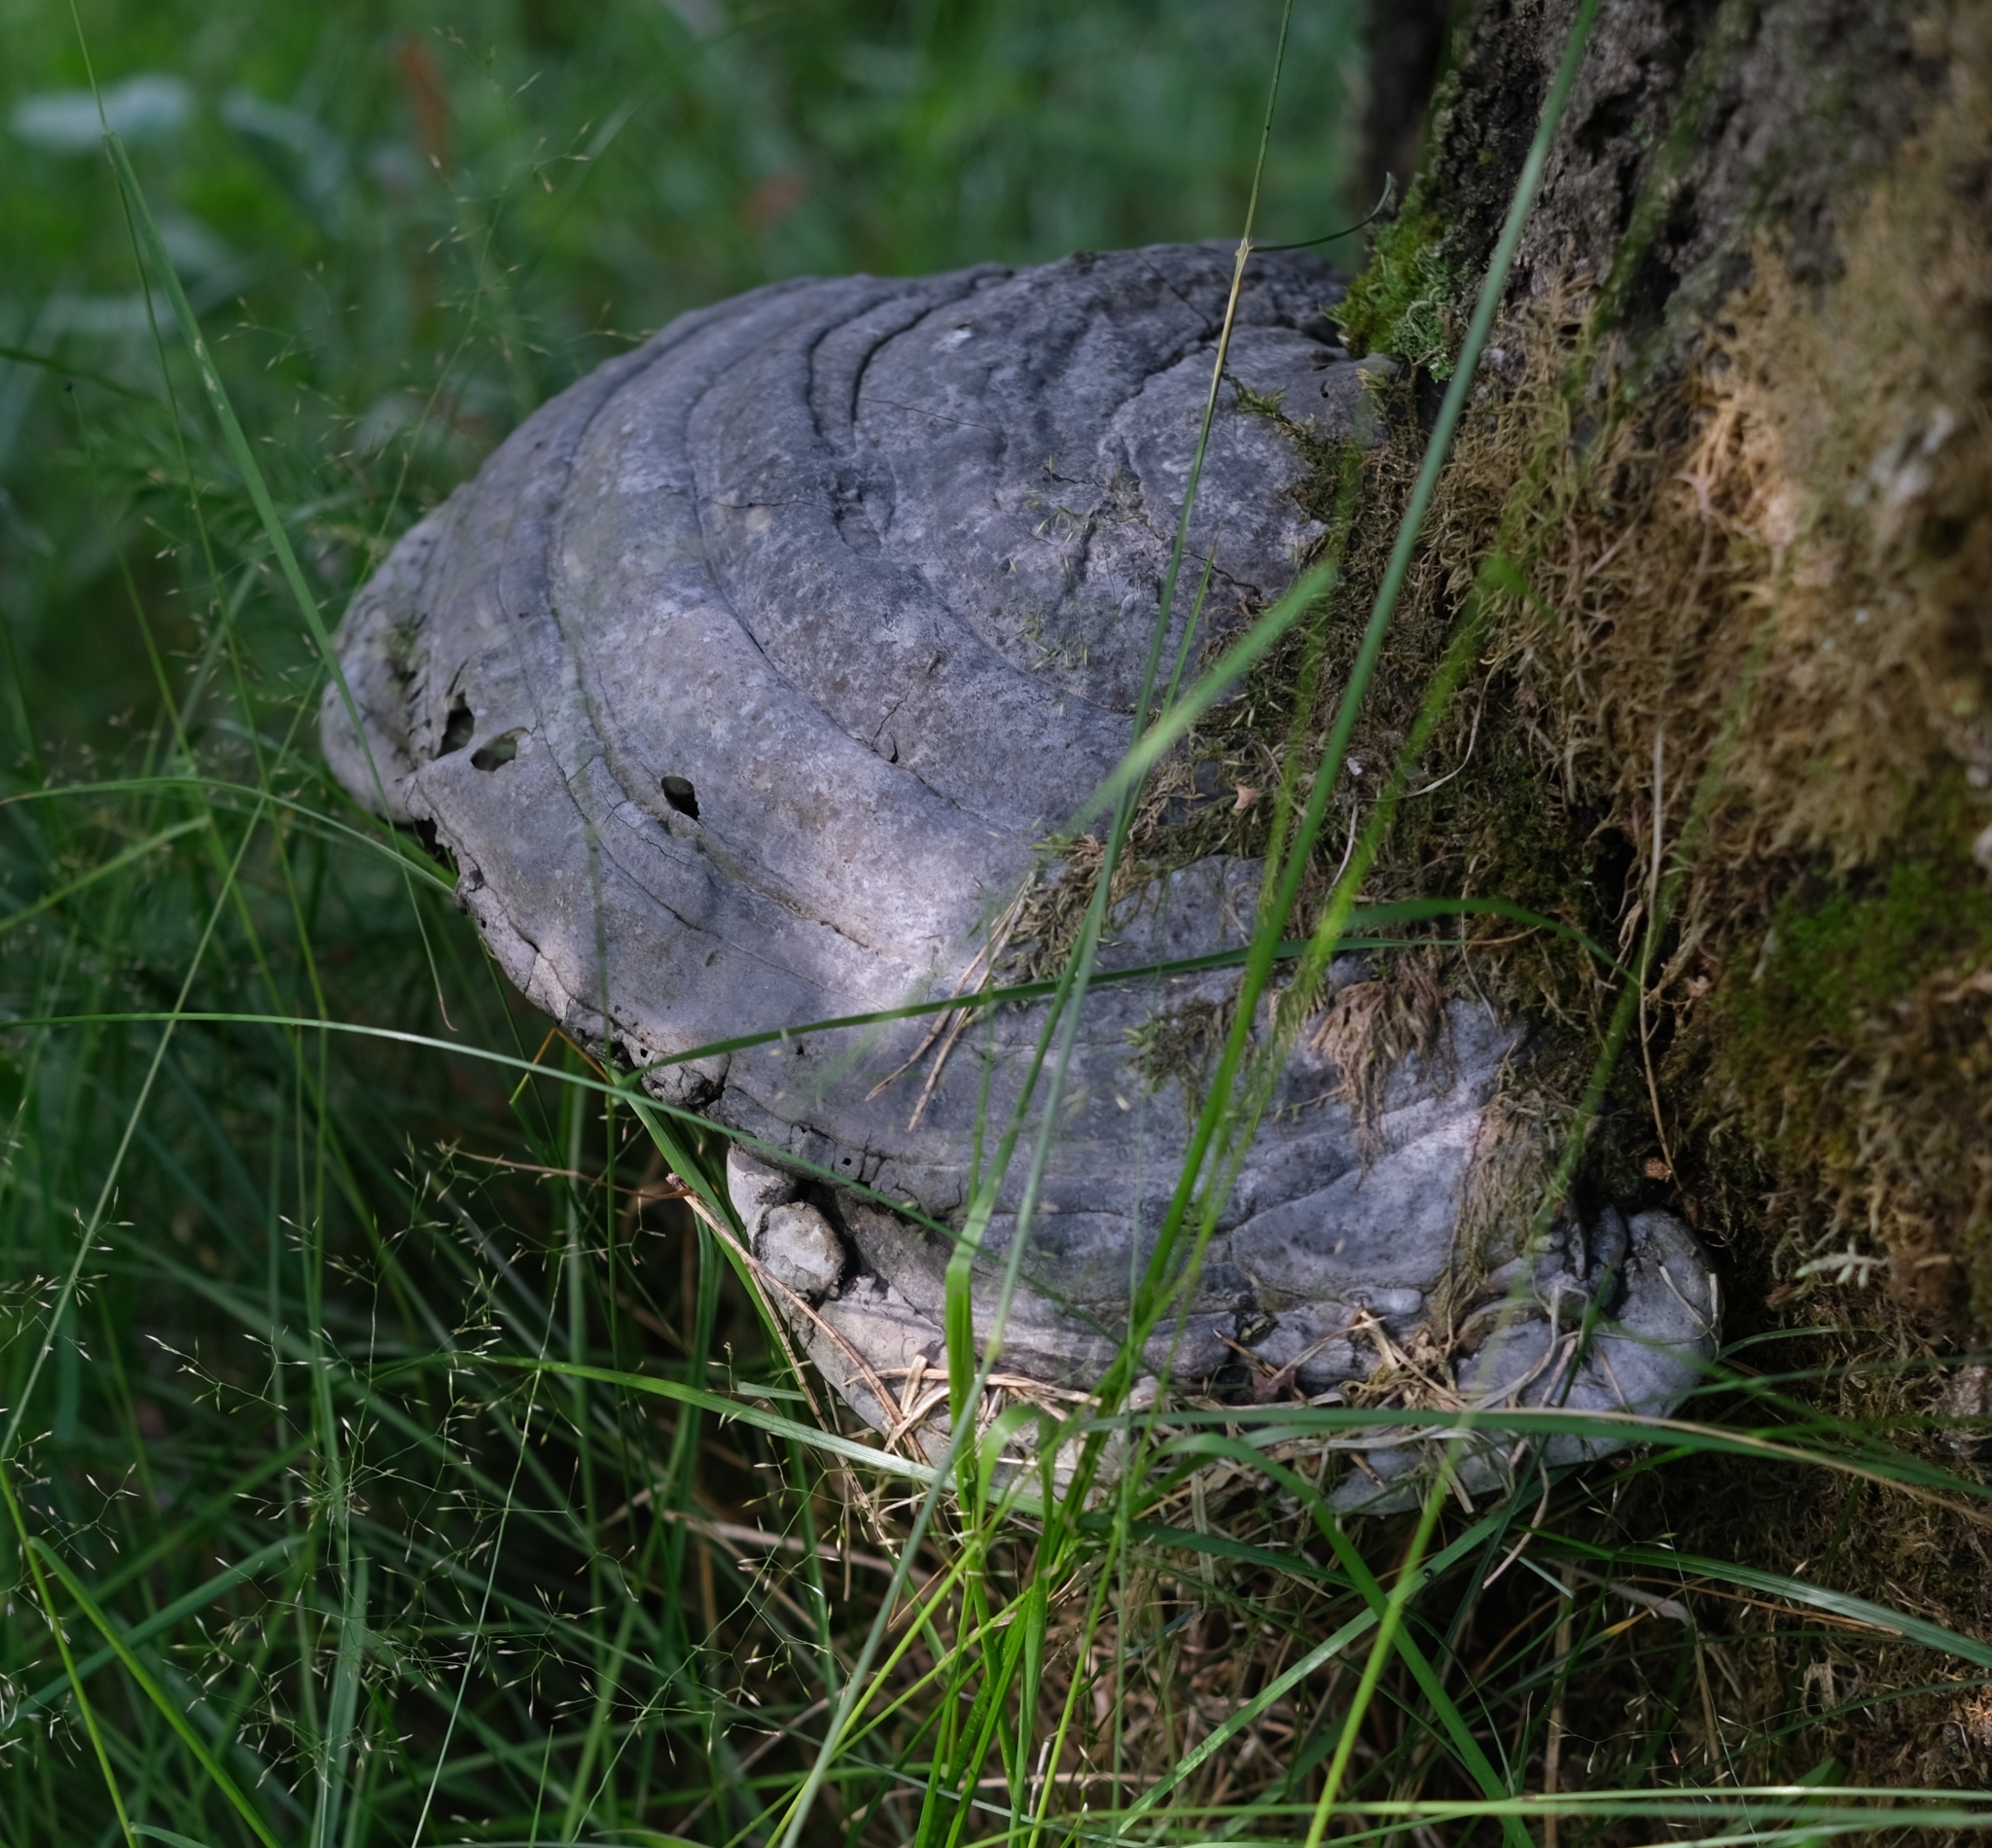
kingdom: Fungi
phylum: Basidiomycota
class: Agaricomycetes
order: Polyporales
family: Polyporaceae
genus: Fomes
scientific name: Fomes fomentarius
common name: Hoof fungus
